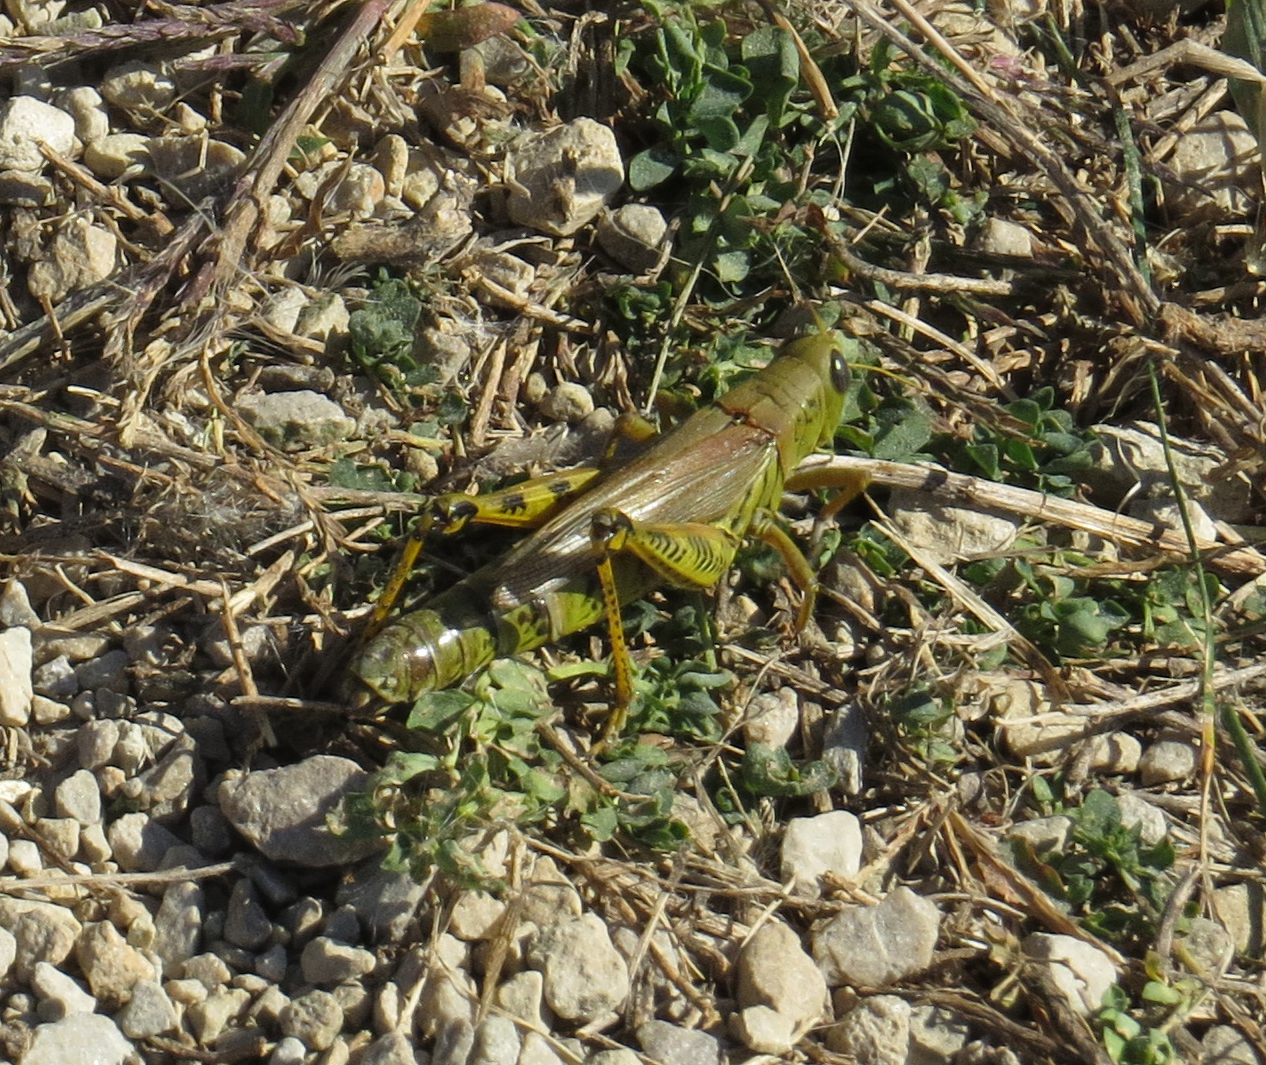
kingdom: Animalia
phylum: Arthropoda
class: Insecta
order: Orthoptera
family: Acrididae
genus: Melanoplus
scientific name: Melanoplus differentialis
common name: Differential grasshopper
